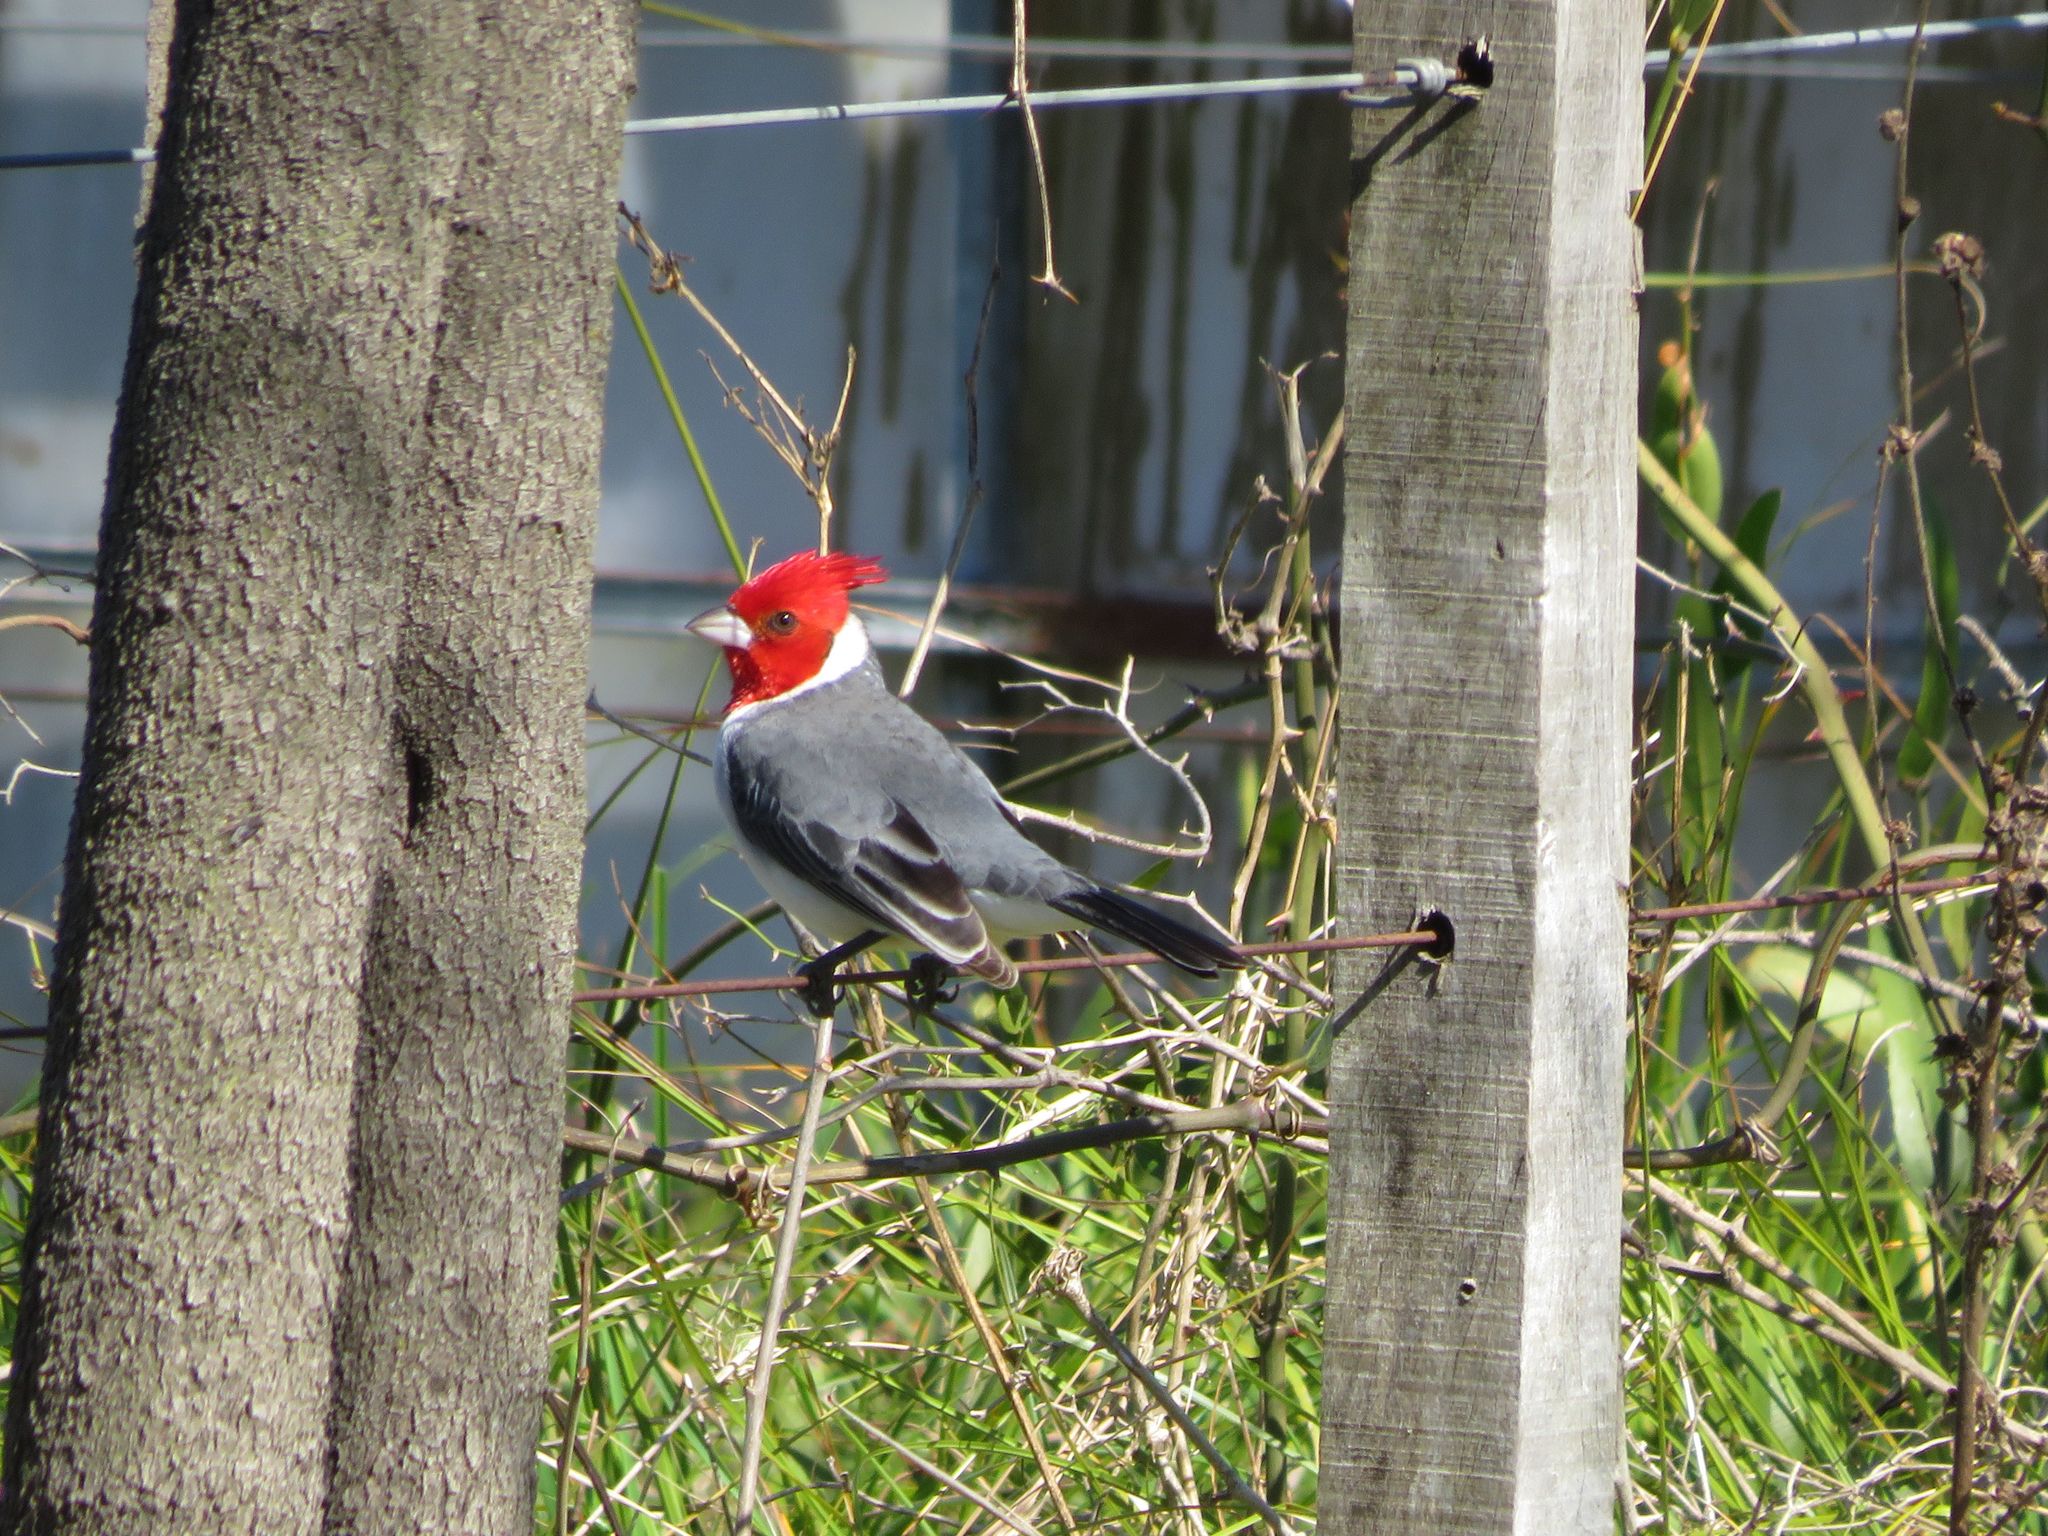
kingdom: Animalia
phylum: Chordata
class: Aves
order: Passeriformes
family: Thraupidae
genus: Paroaria
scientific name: Paroaria coronata
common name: Red-crested cardinal
